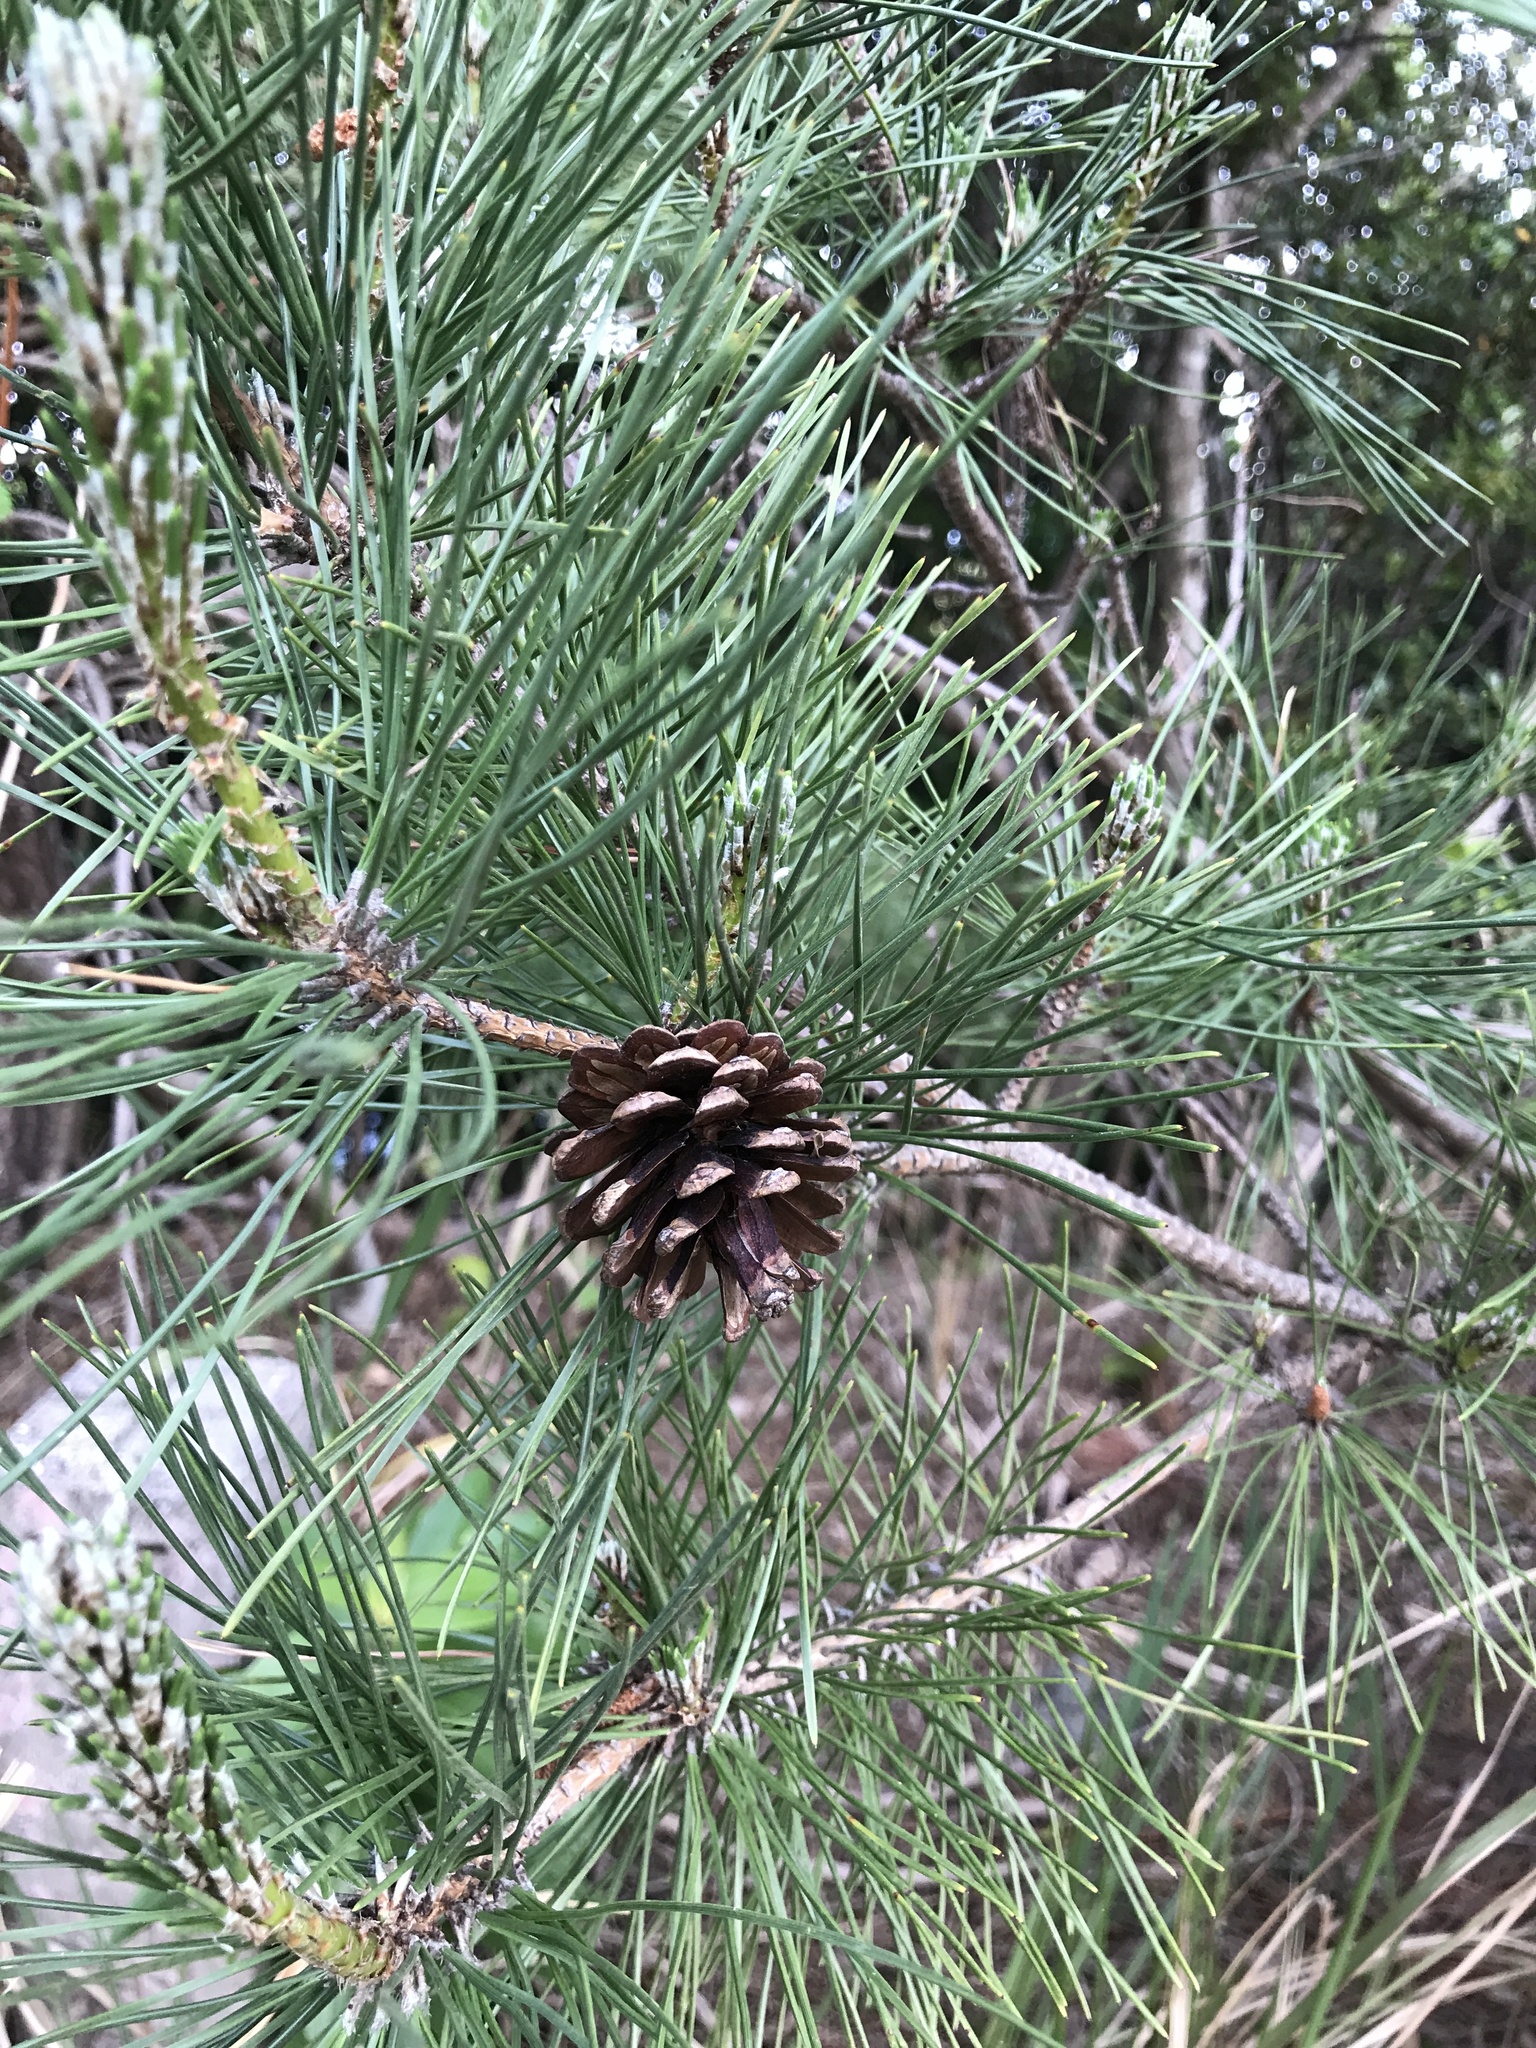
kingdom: Plantae
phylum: Tracheophyta
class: Pinopsida
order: Pinales
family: Pinaceae
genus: Pinus
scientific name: Pinus thunbergii
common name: Japanese black pine
